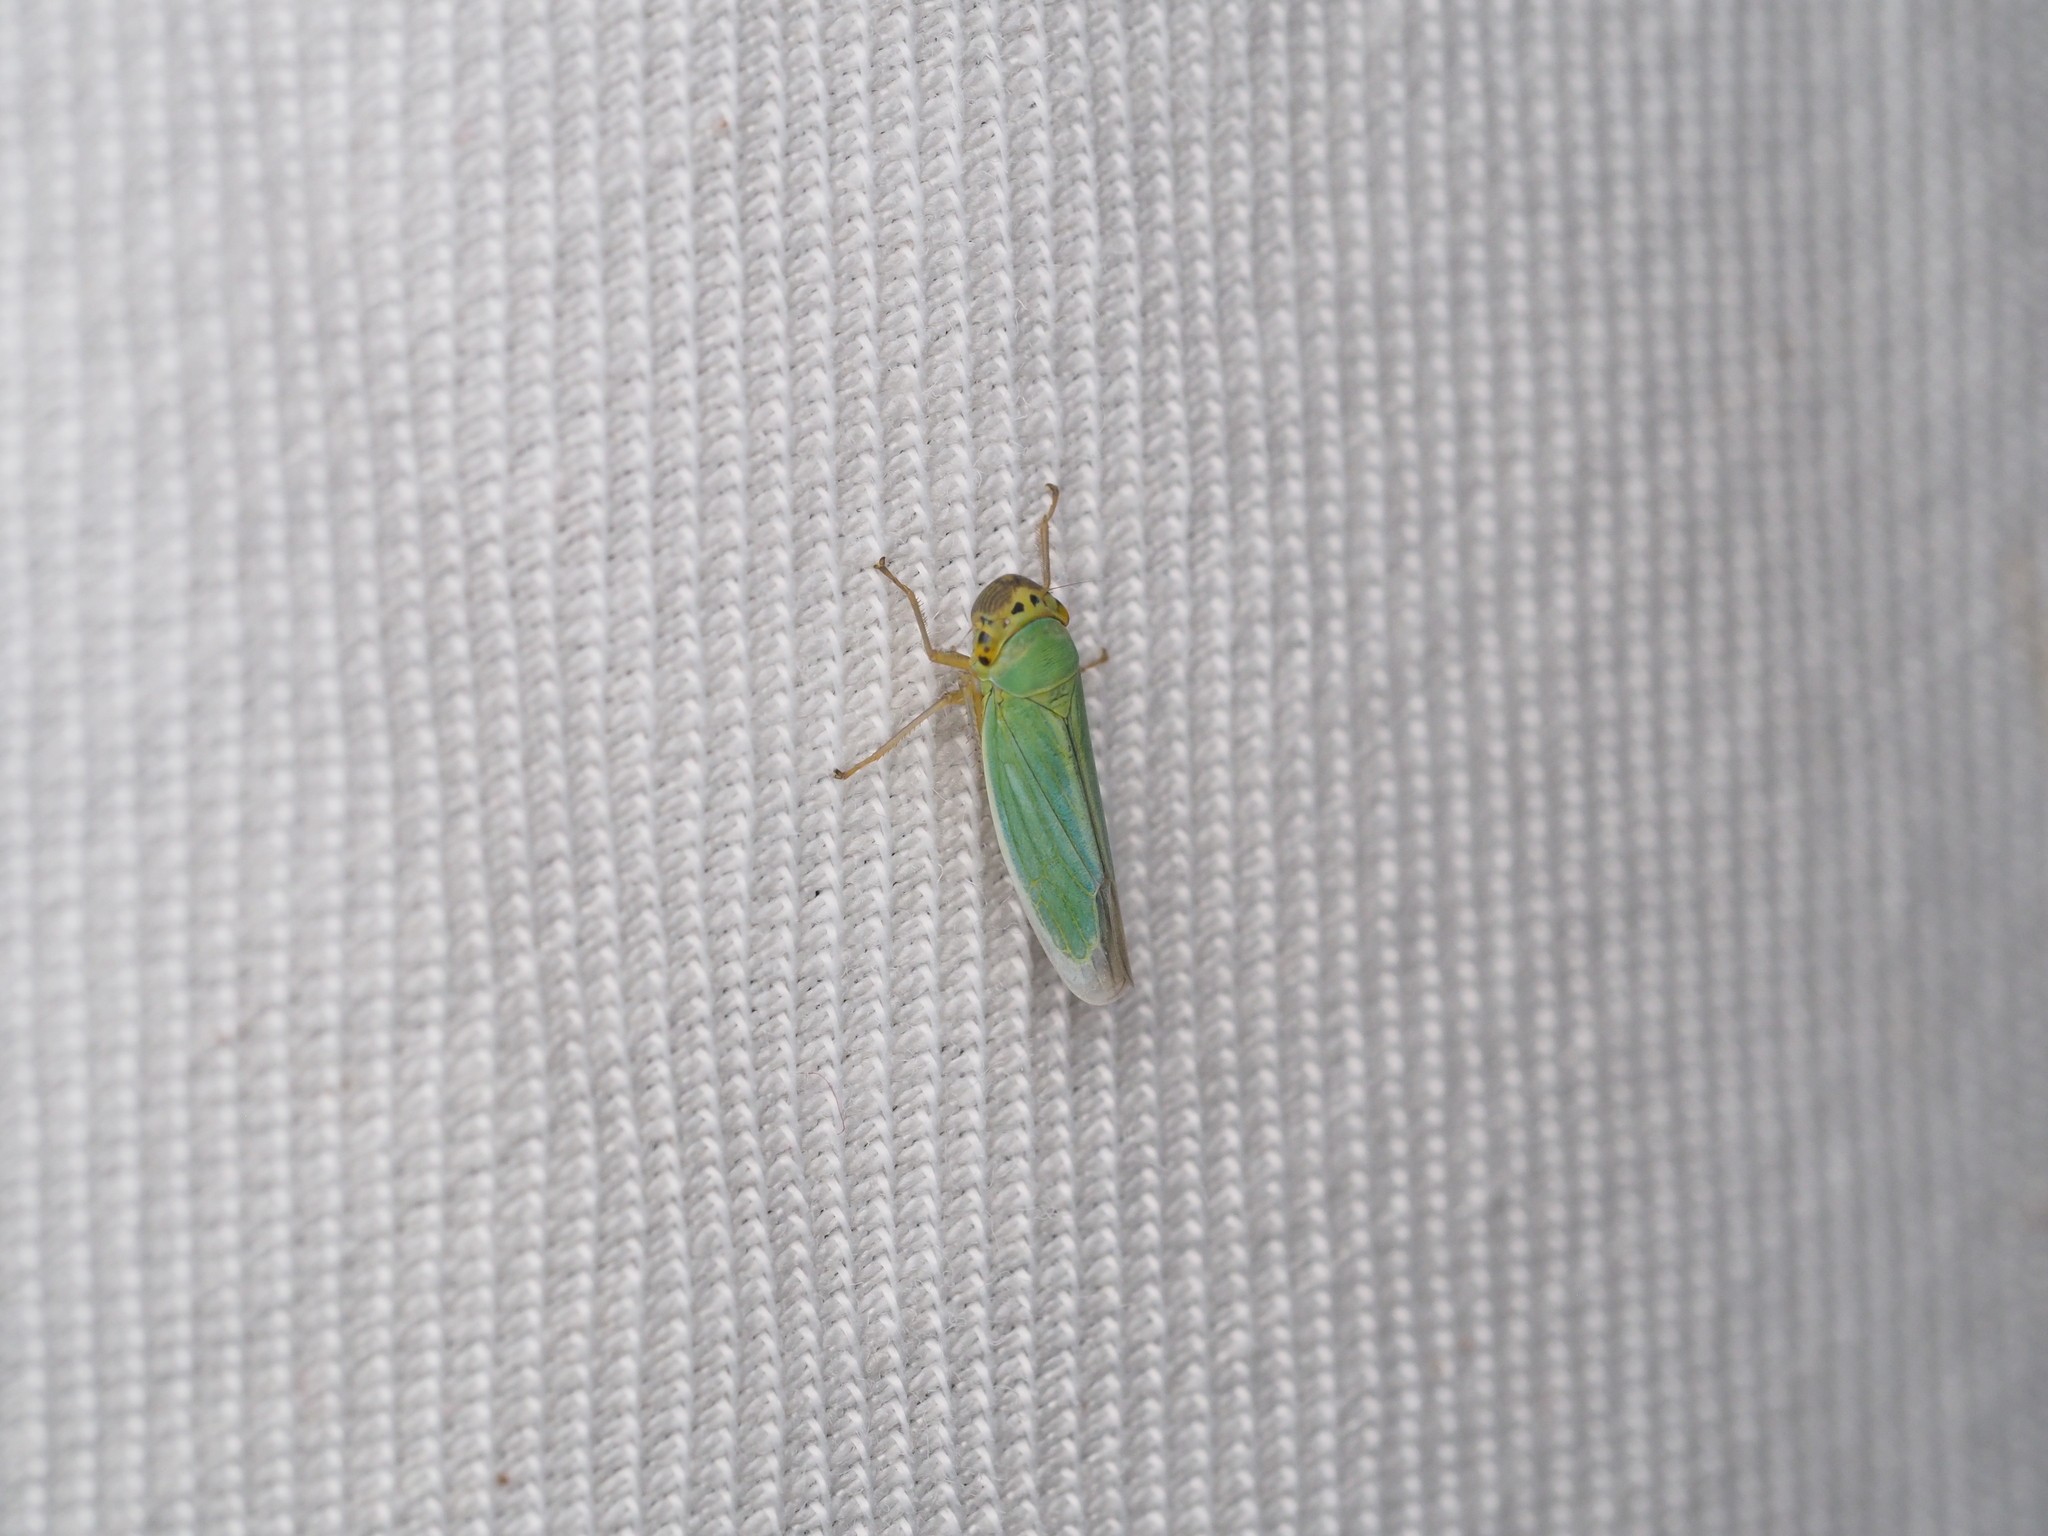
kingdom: Animalia
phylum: Arthropoda
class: Insecta
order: Hemiptera
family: Cicadellidae
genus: Cicadella
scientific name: Cicadella viridis
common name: Leafhopper
